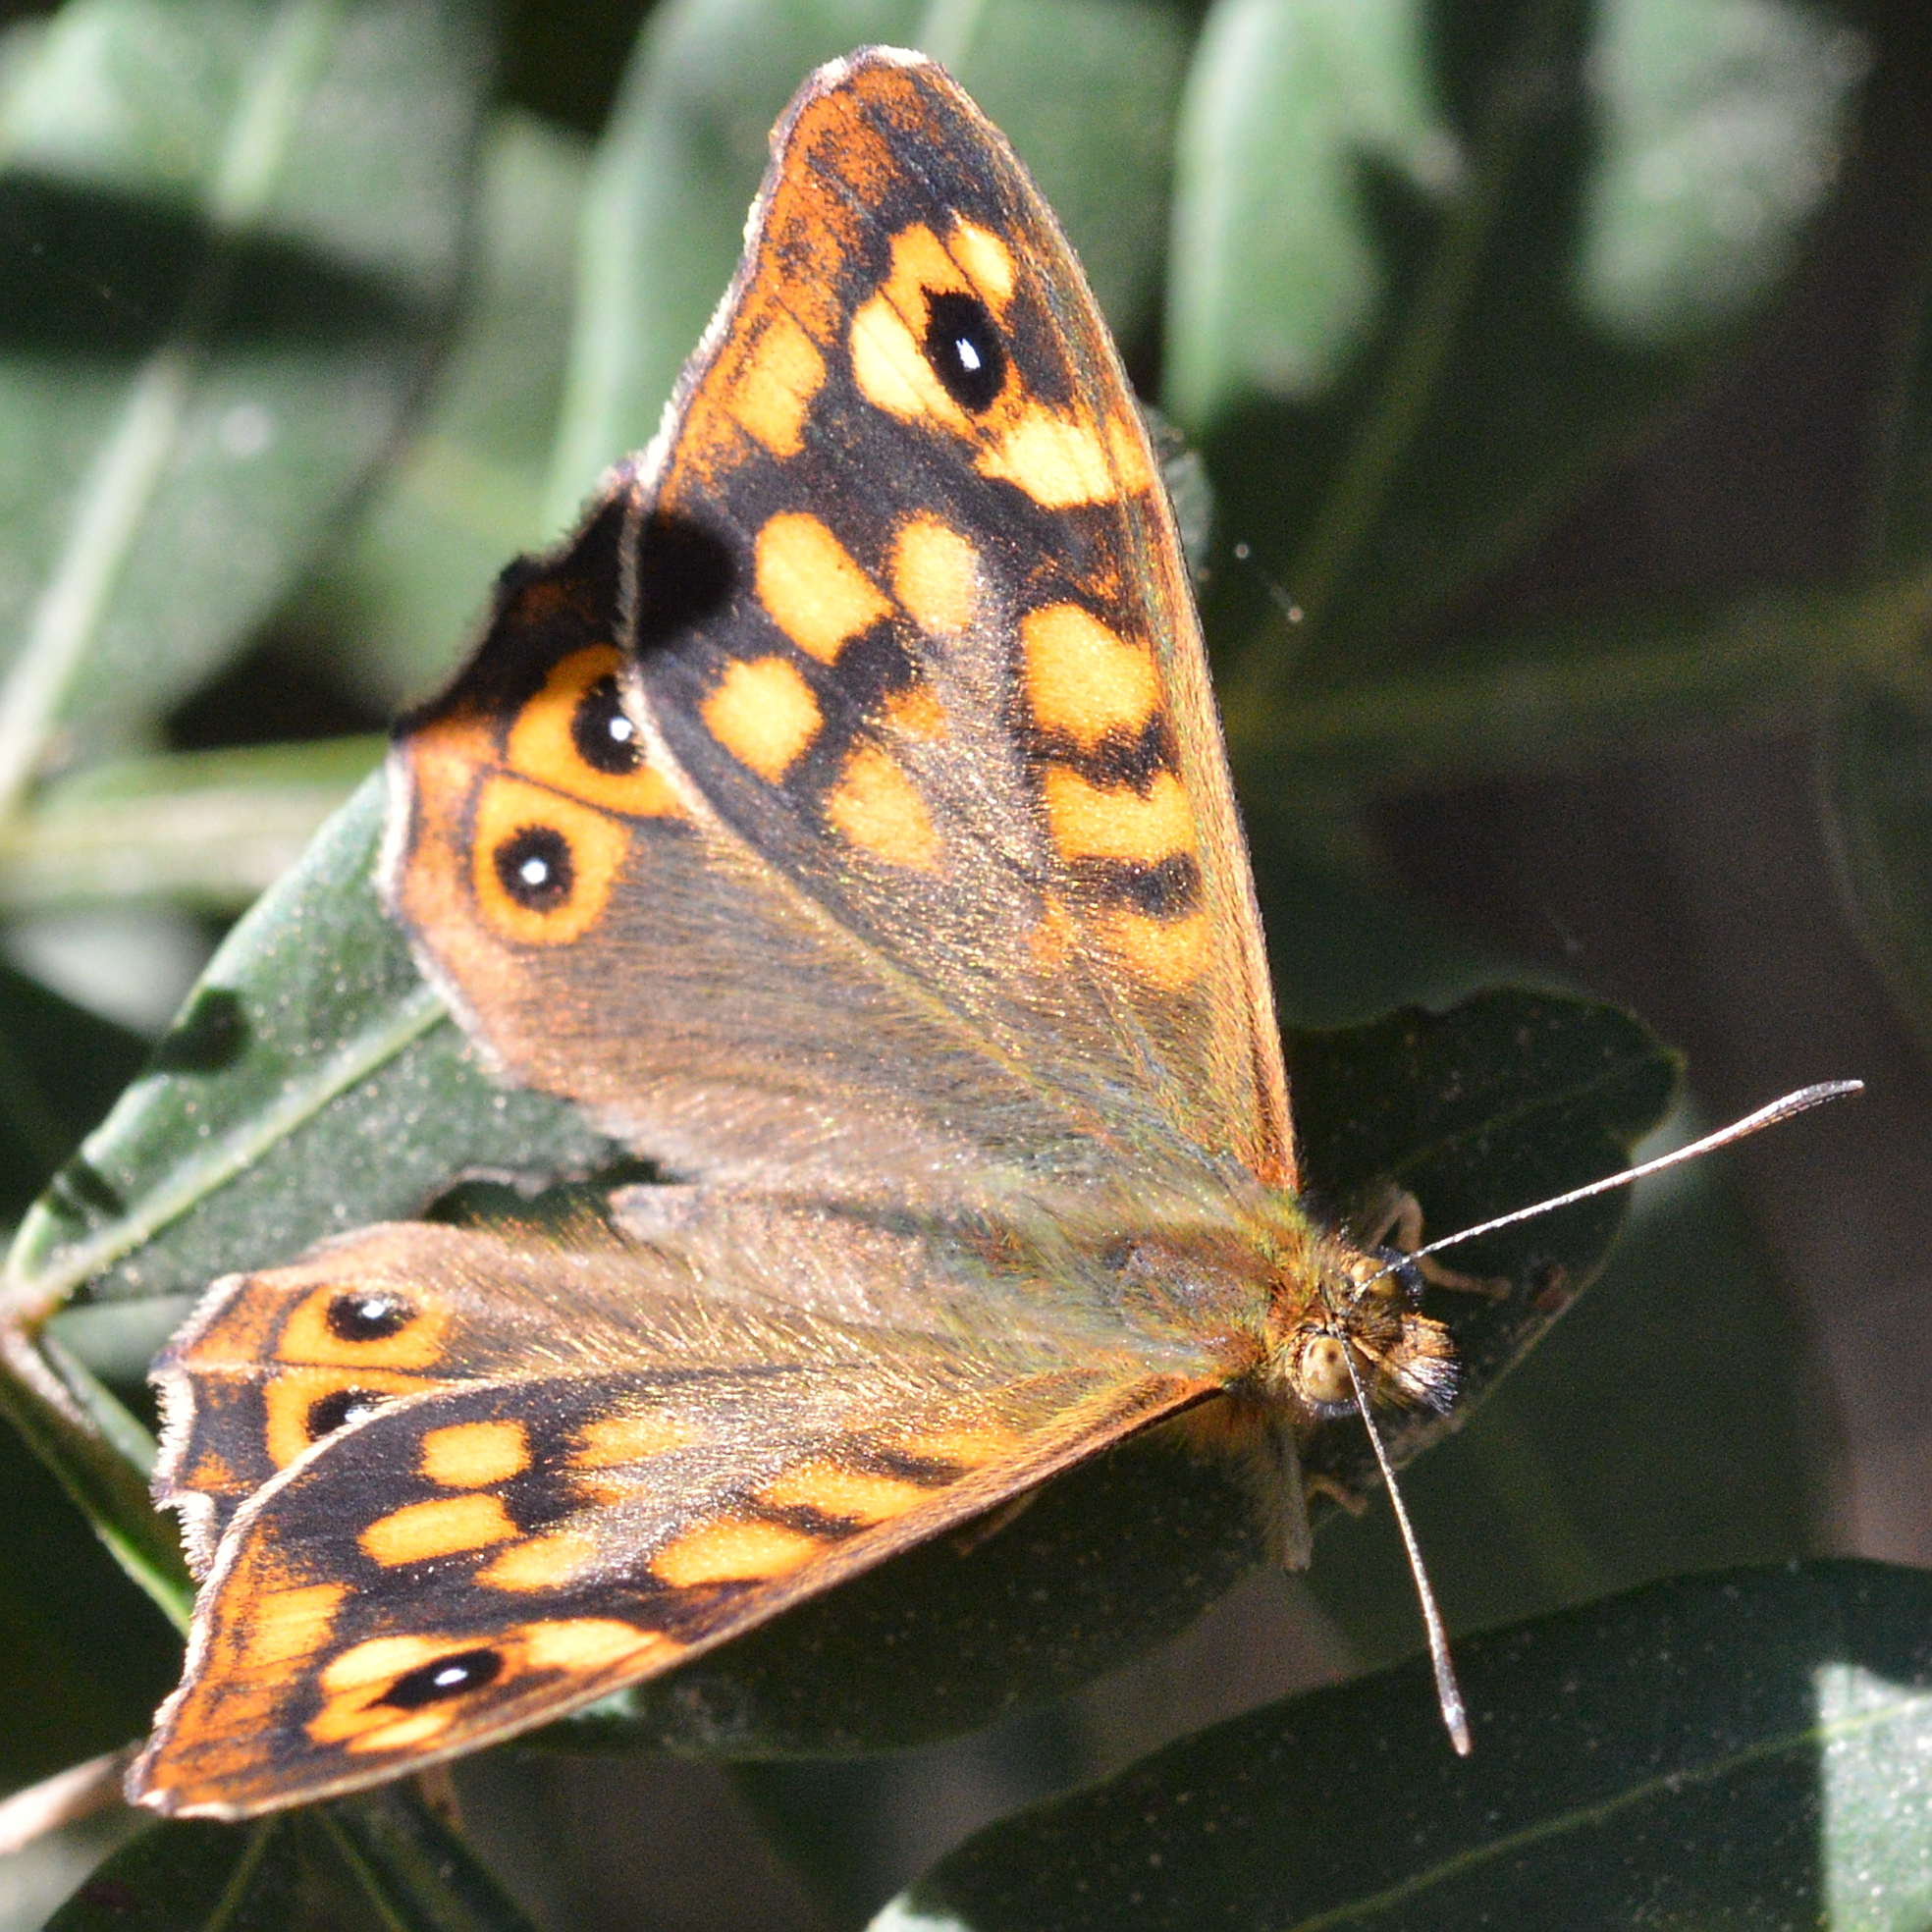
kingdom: Animalia
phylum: Arthropoda
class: Insecta
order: Lepidoptera
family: Nymphalidae
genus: Pararge
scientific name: Pararge aegeria
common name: Speckled wood
